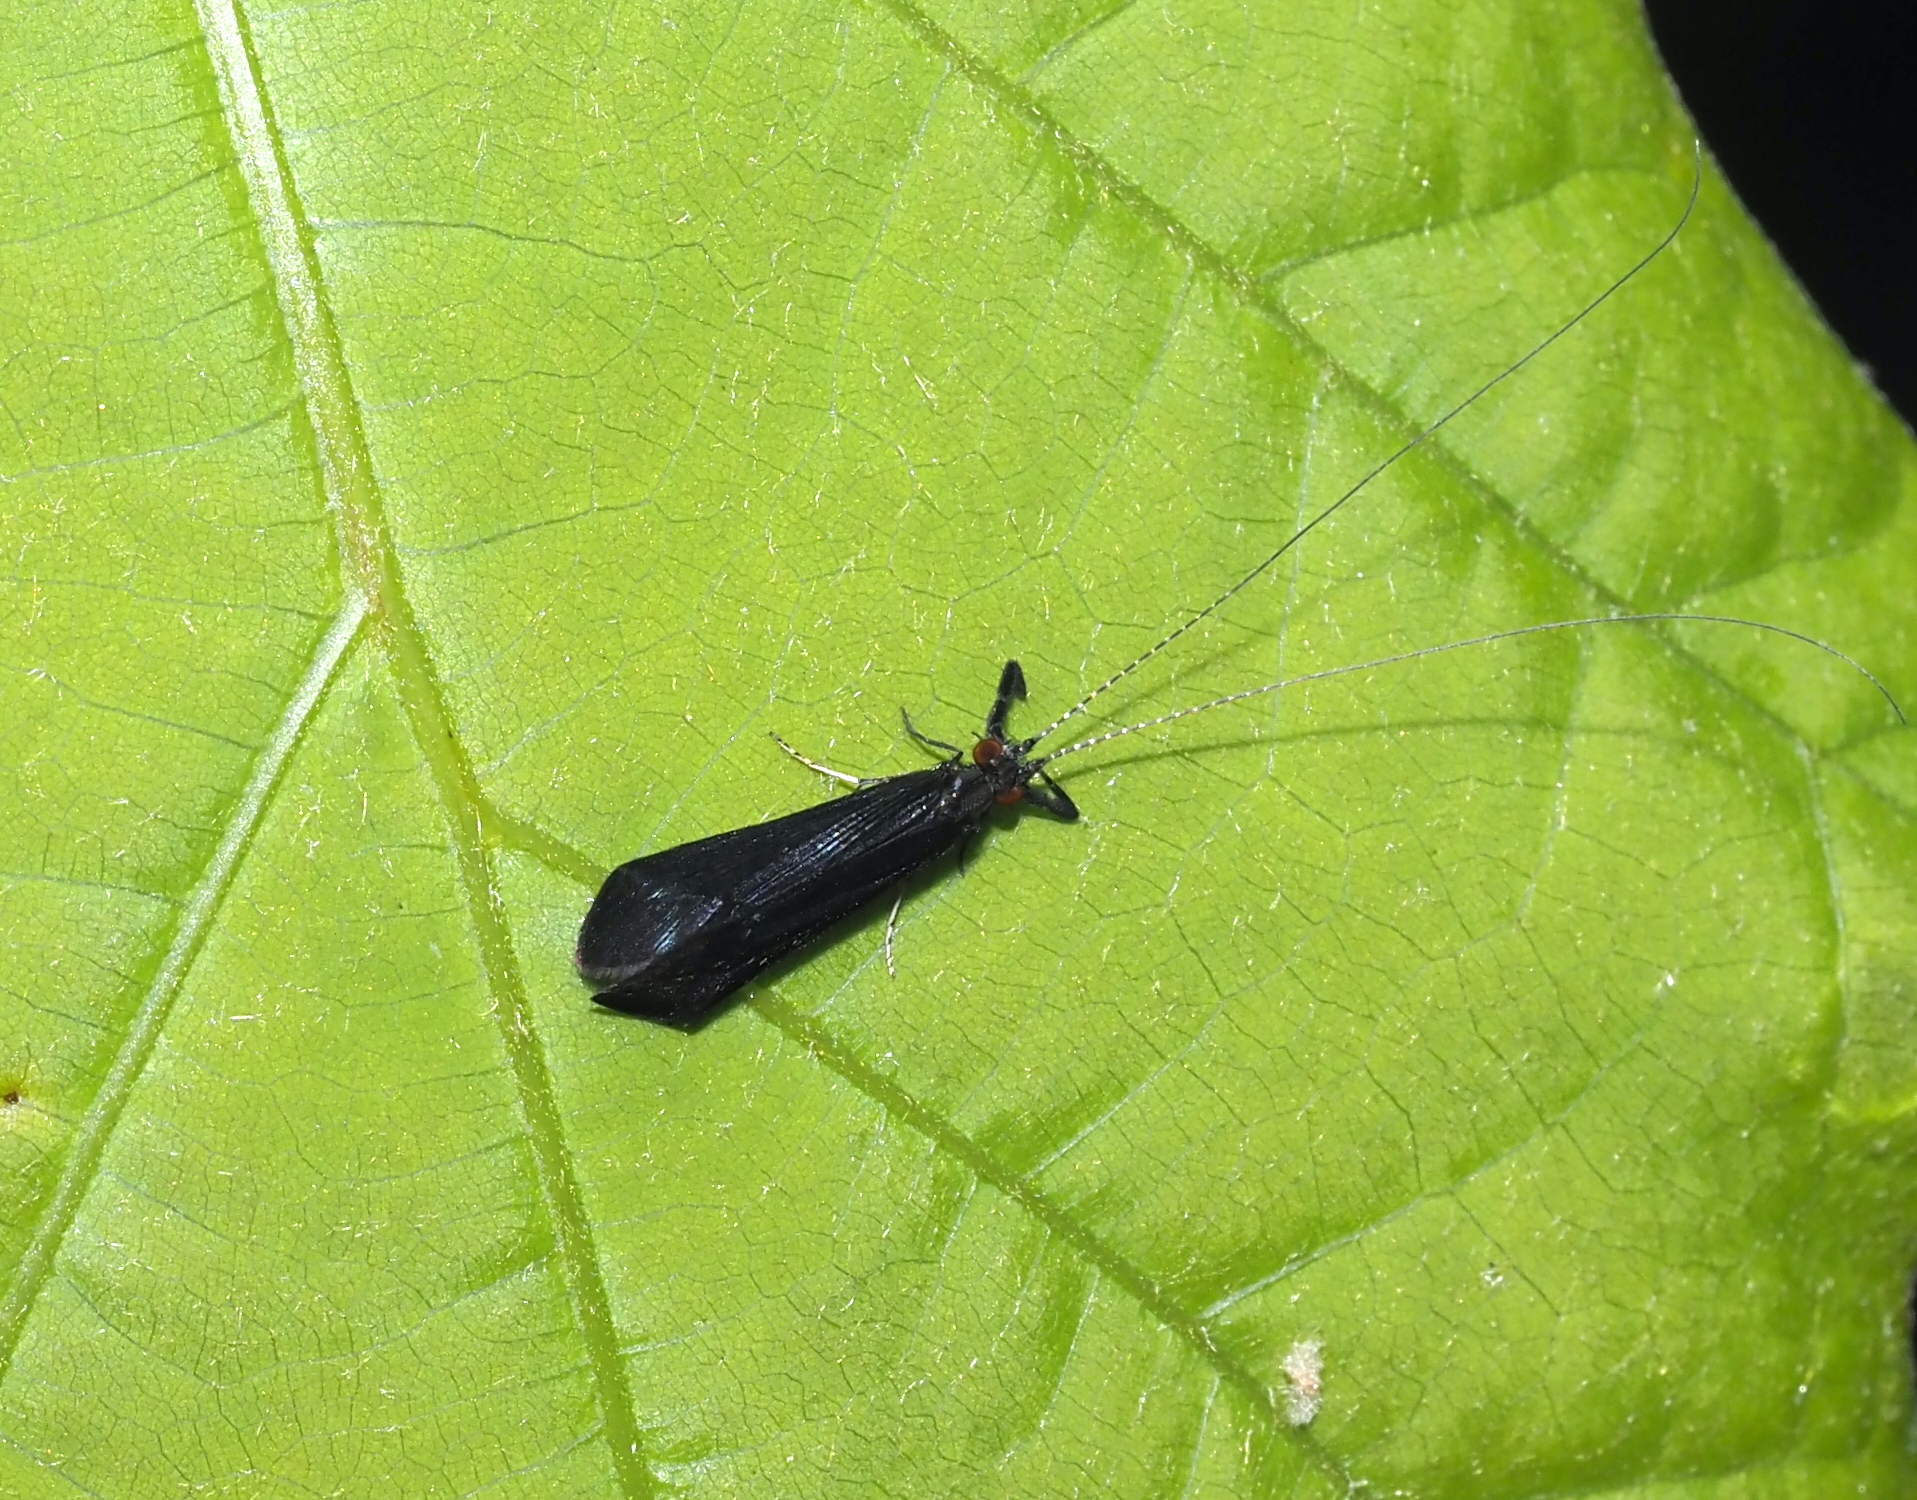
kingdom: Animalia
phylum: Arthropoda
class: Insecta
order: Trichoptera
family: Leptoceridae
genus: Mystacides
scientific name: Mystacides sepulchralis
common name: Black dancer caddisfly
